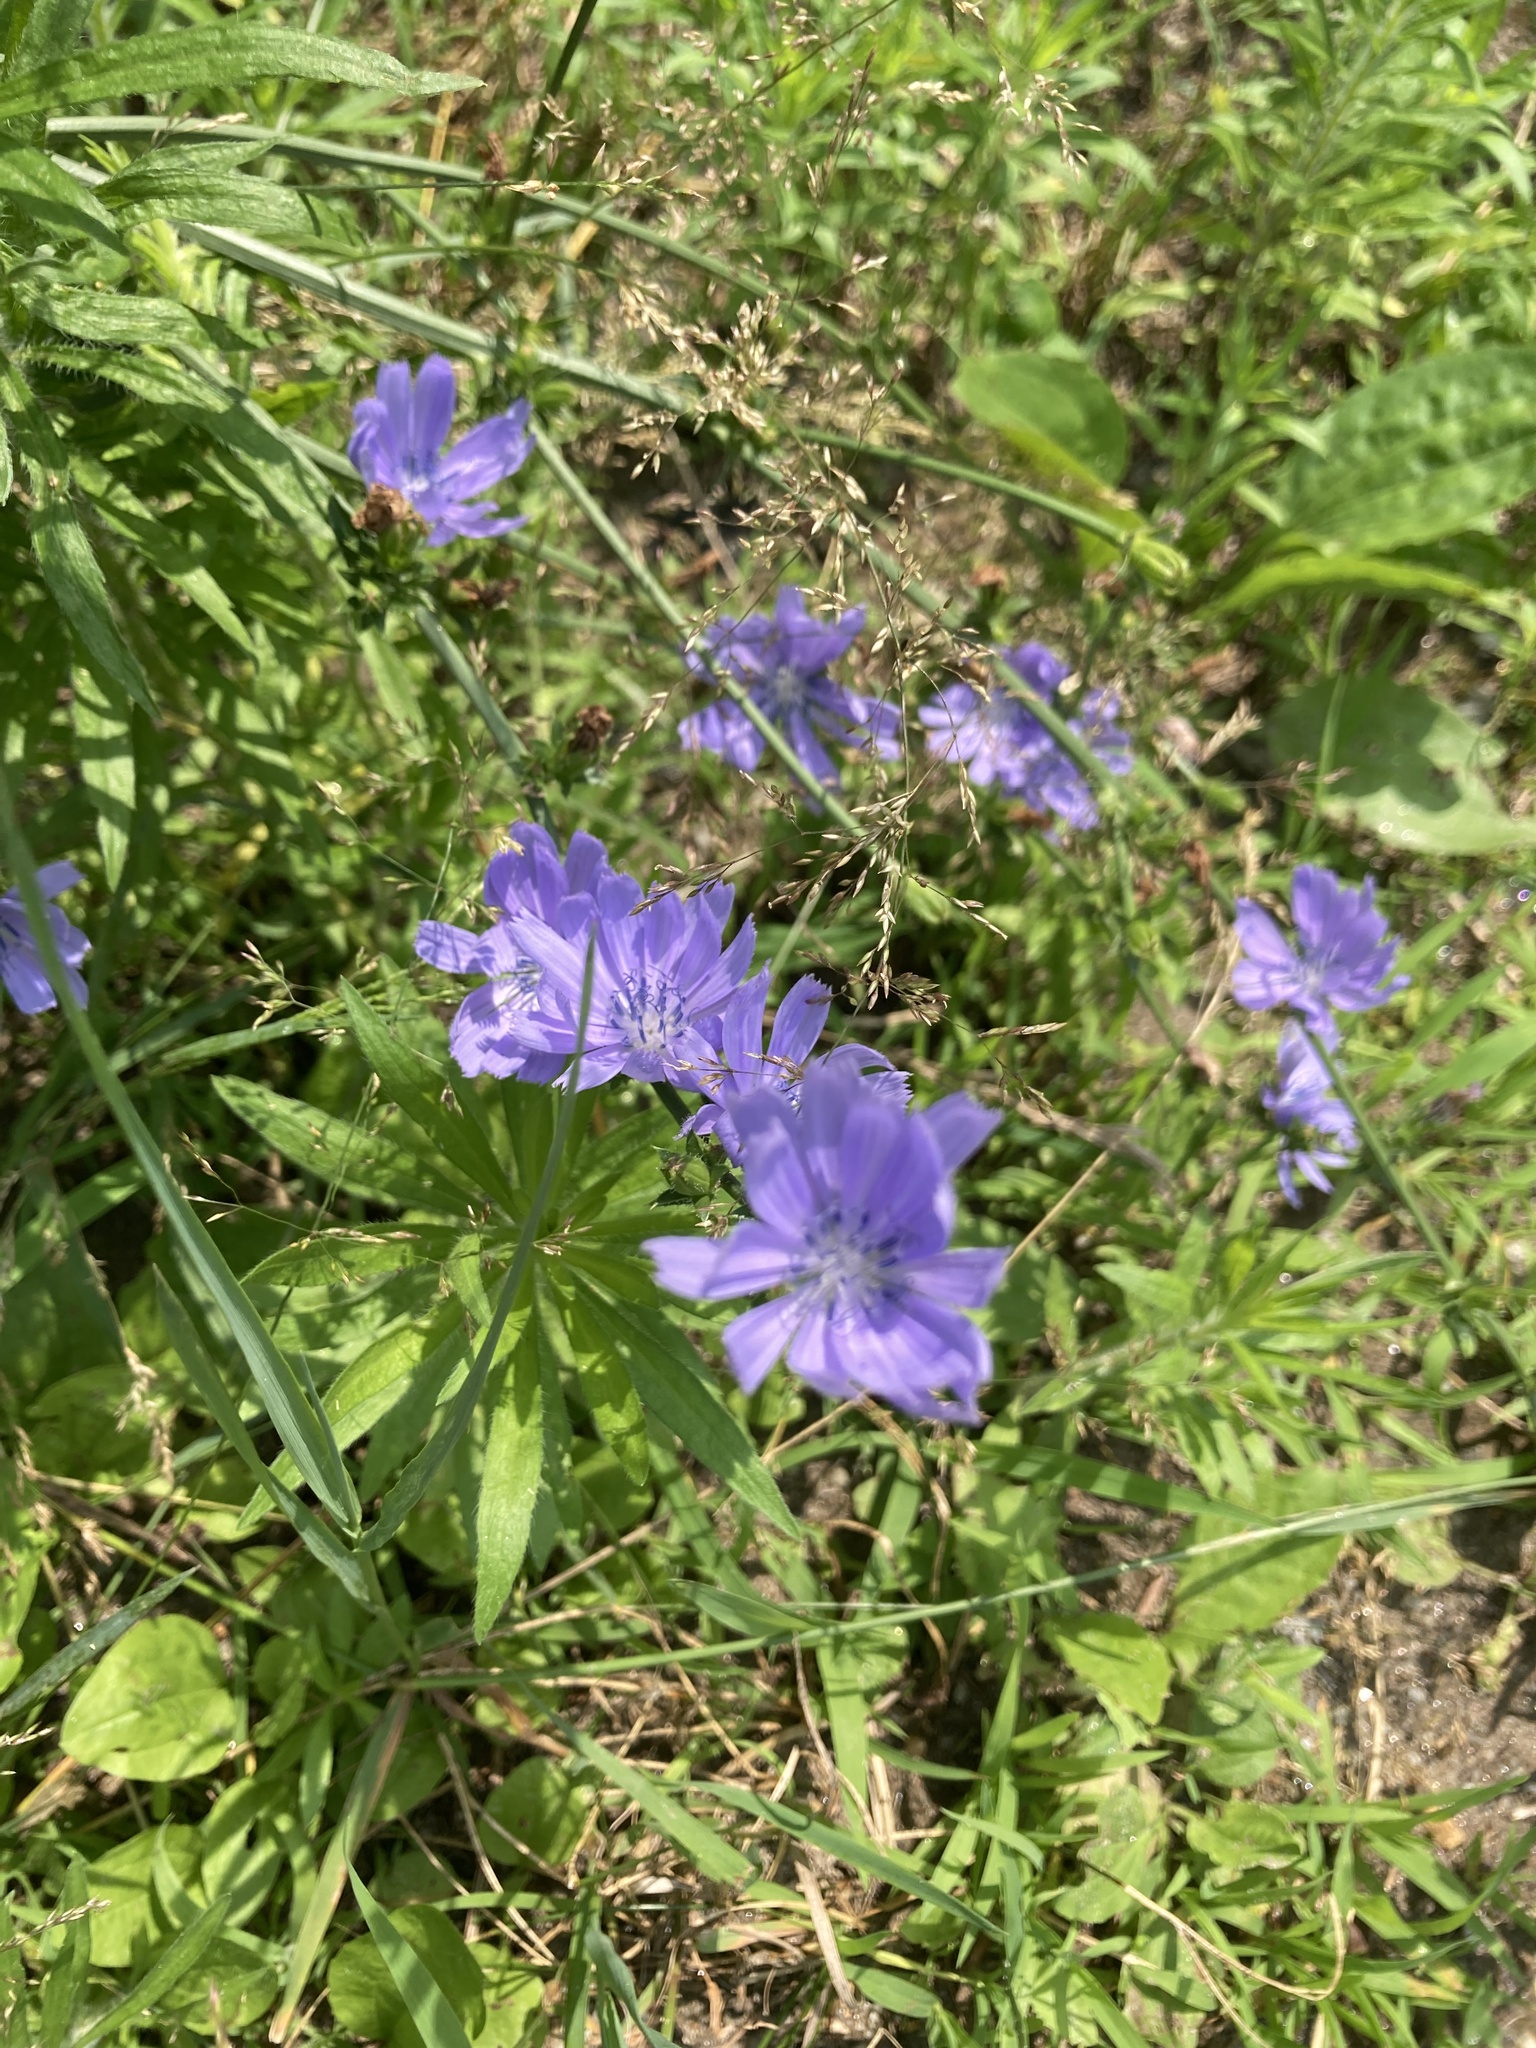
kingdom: Plantae
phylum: Tracheophyta
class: Magnoliopsida
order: Asterales
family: Asteraceae
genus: Cichorium
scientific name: Cichorium intybus
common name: Chicory
